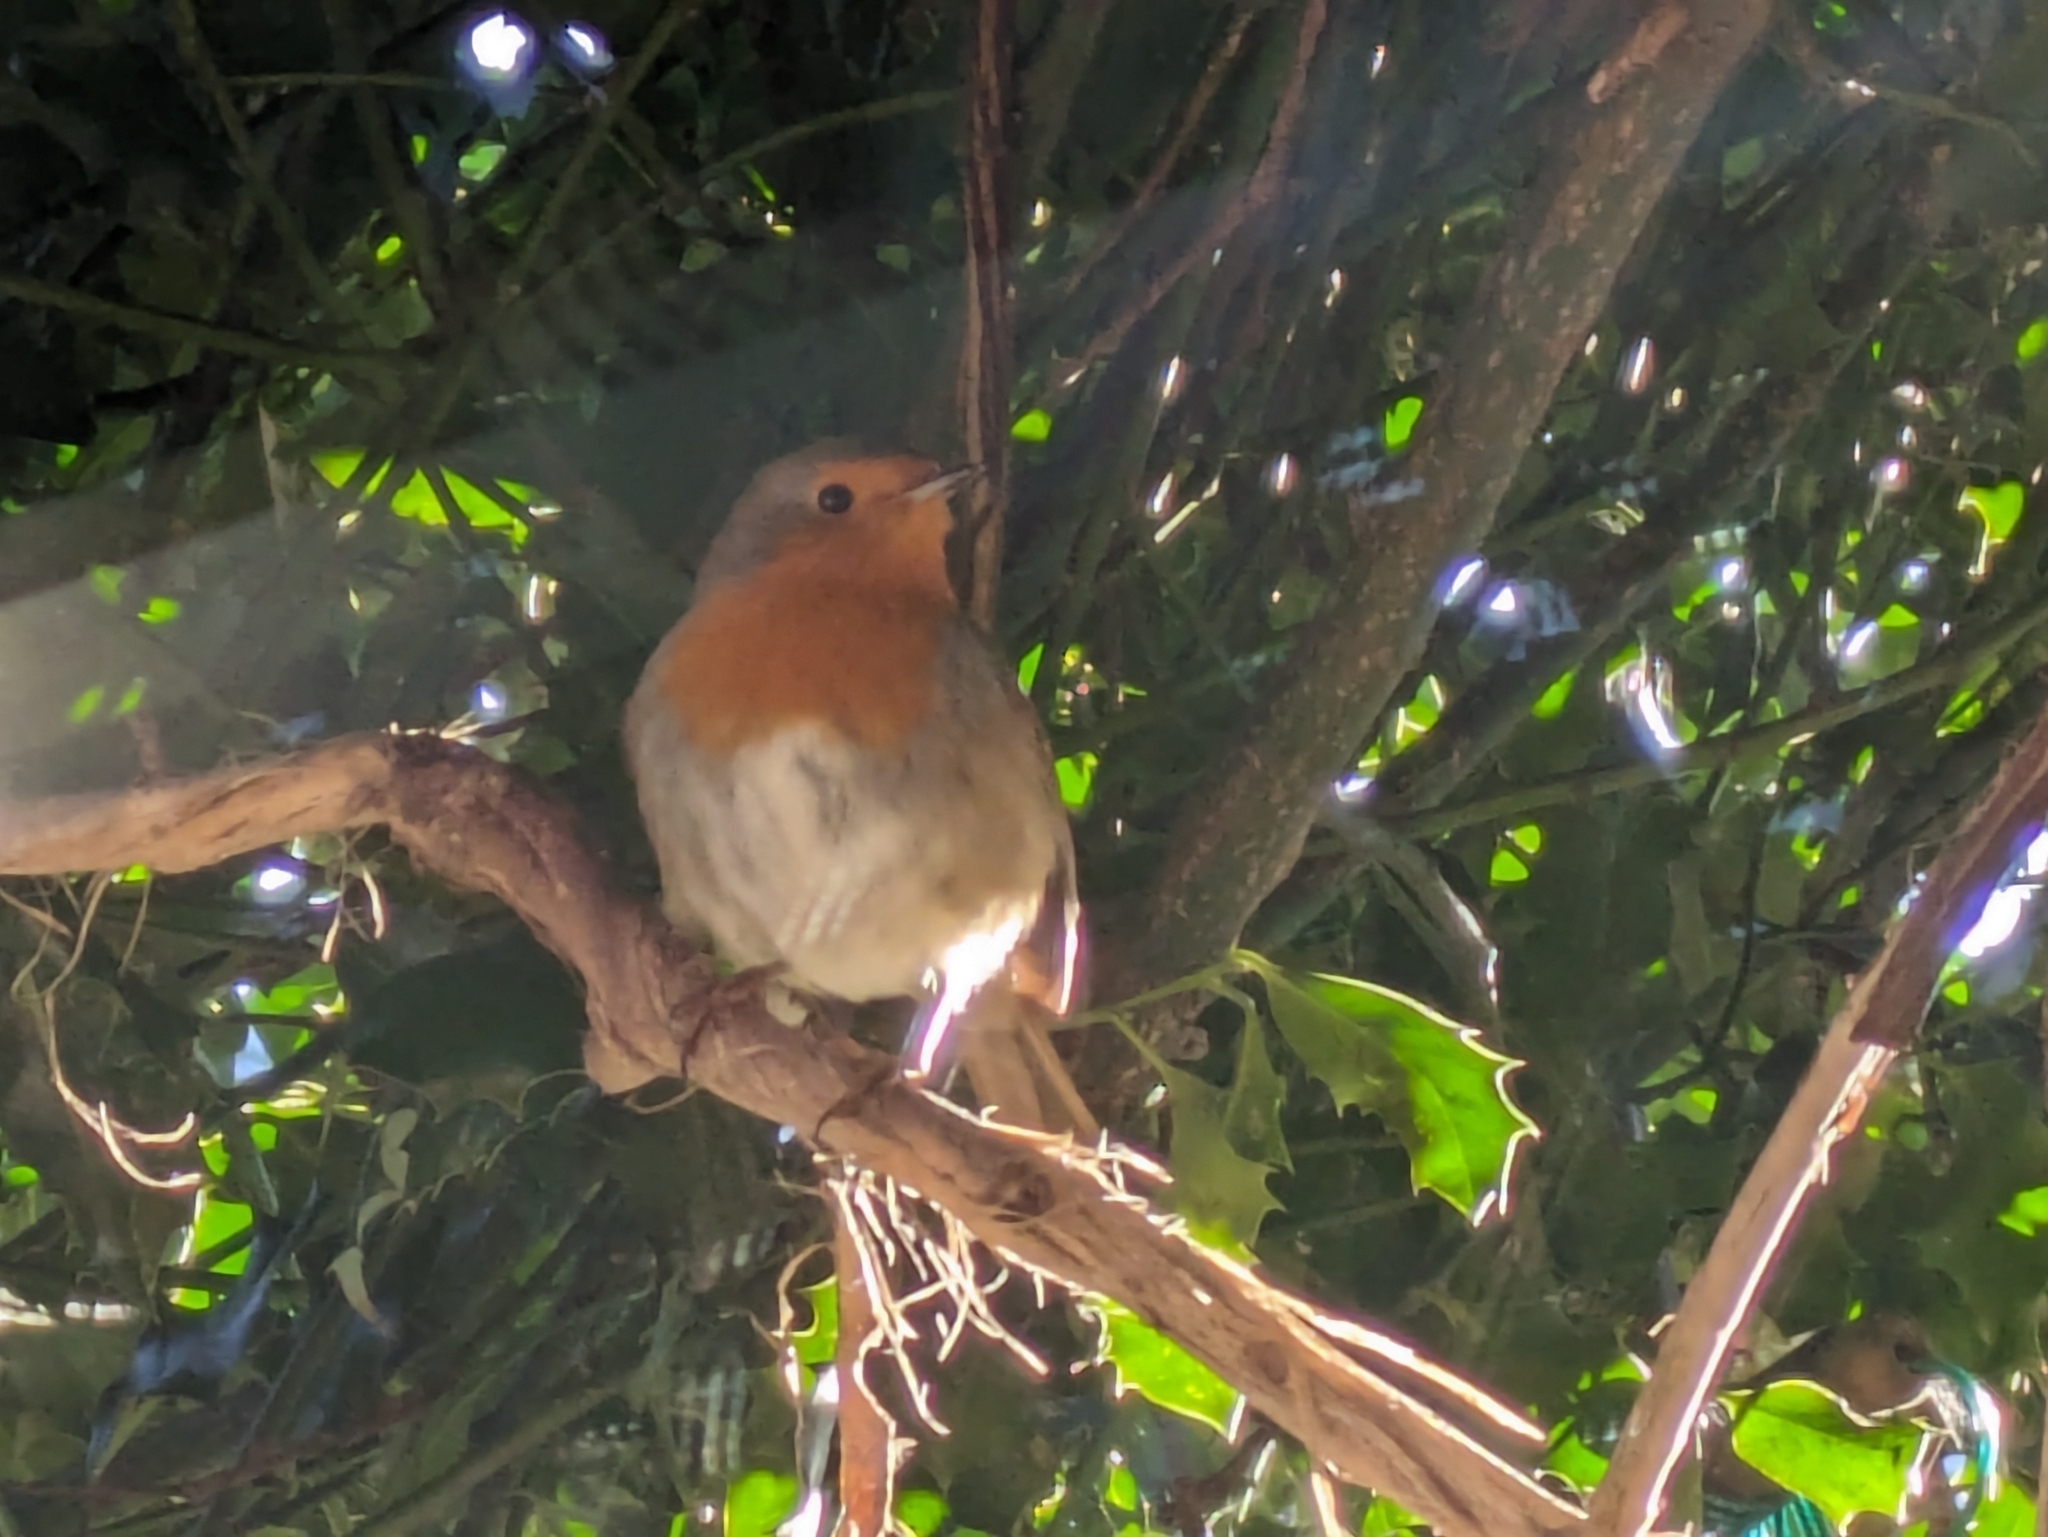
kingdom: Animalia
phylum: Chordata
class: Aves
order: Passeriformes
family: Muscicapidae
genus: Erithacus
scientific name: Erithacus rubecula
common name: European robin
